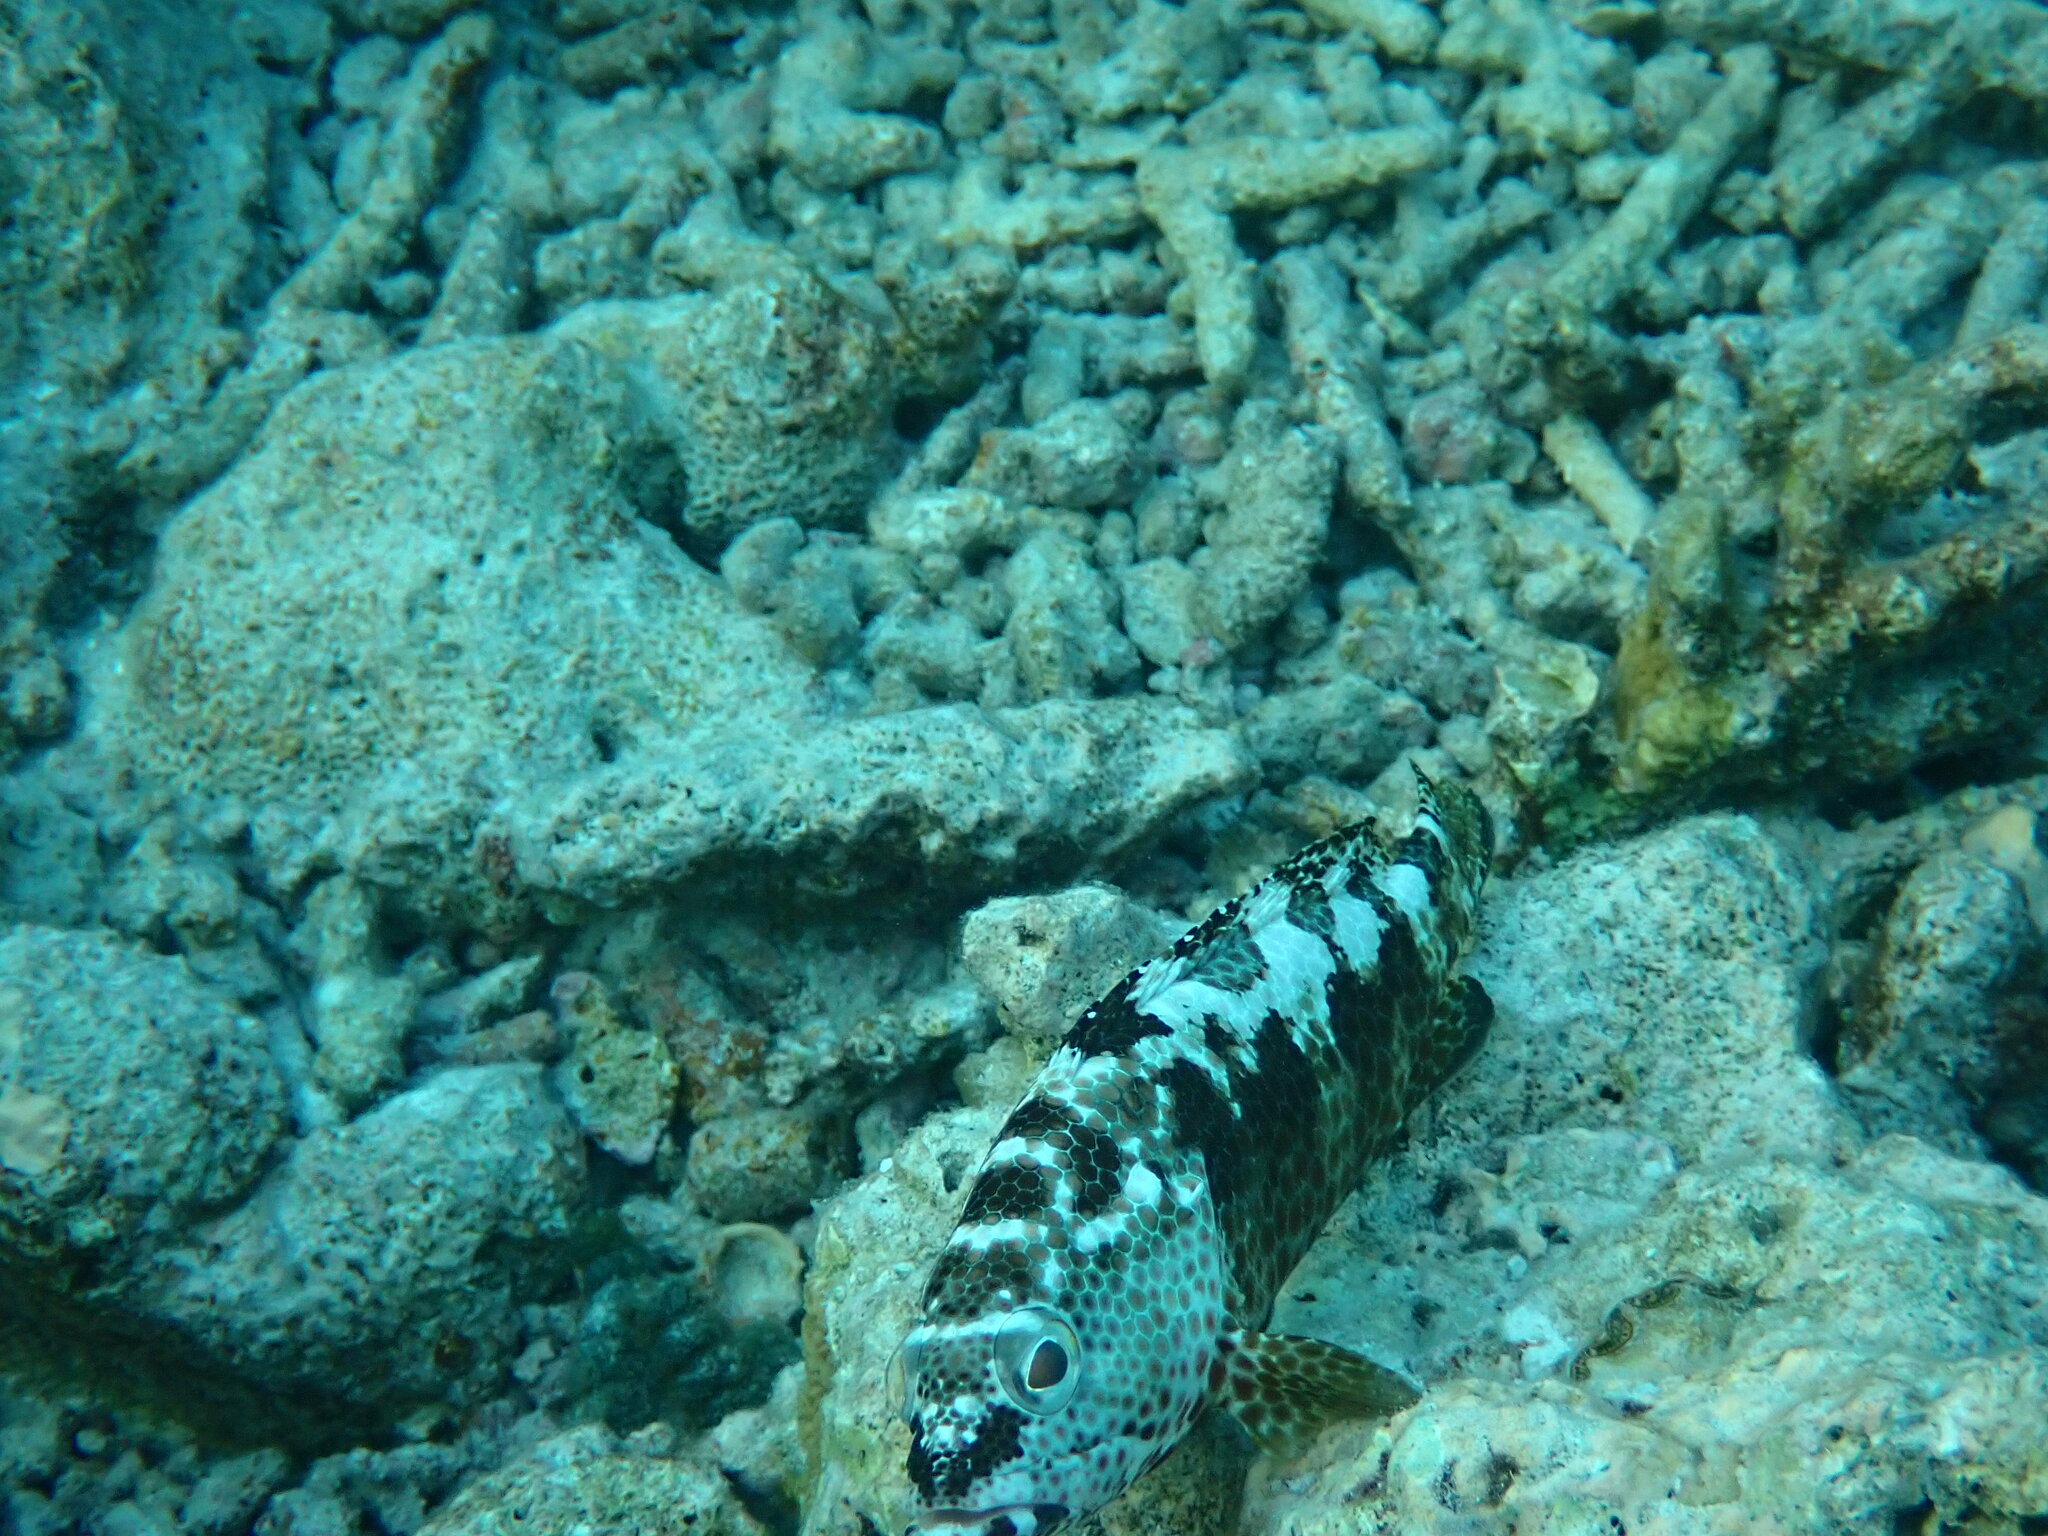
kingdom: Animalia
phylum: Chordata
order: Perciformes
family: Serranidae
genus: Epinephelus
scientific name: Epinephelus spilotoceps
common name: Foursaddle grouper
